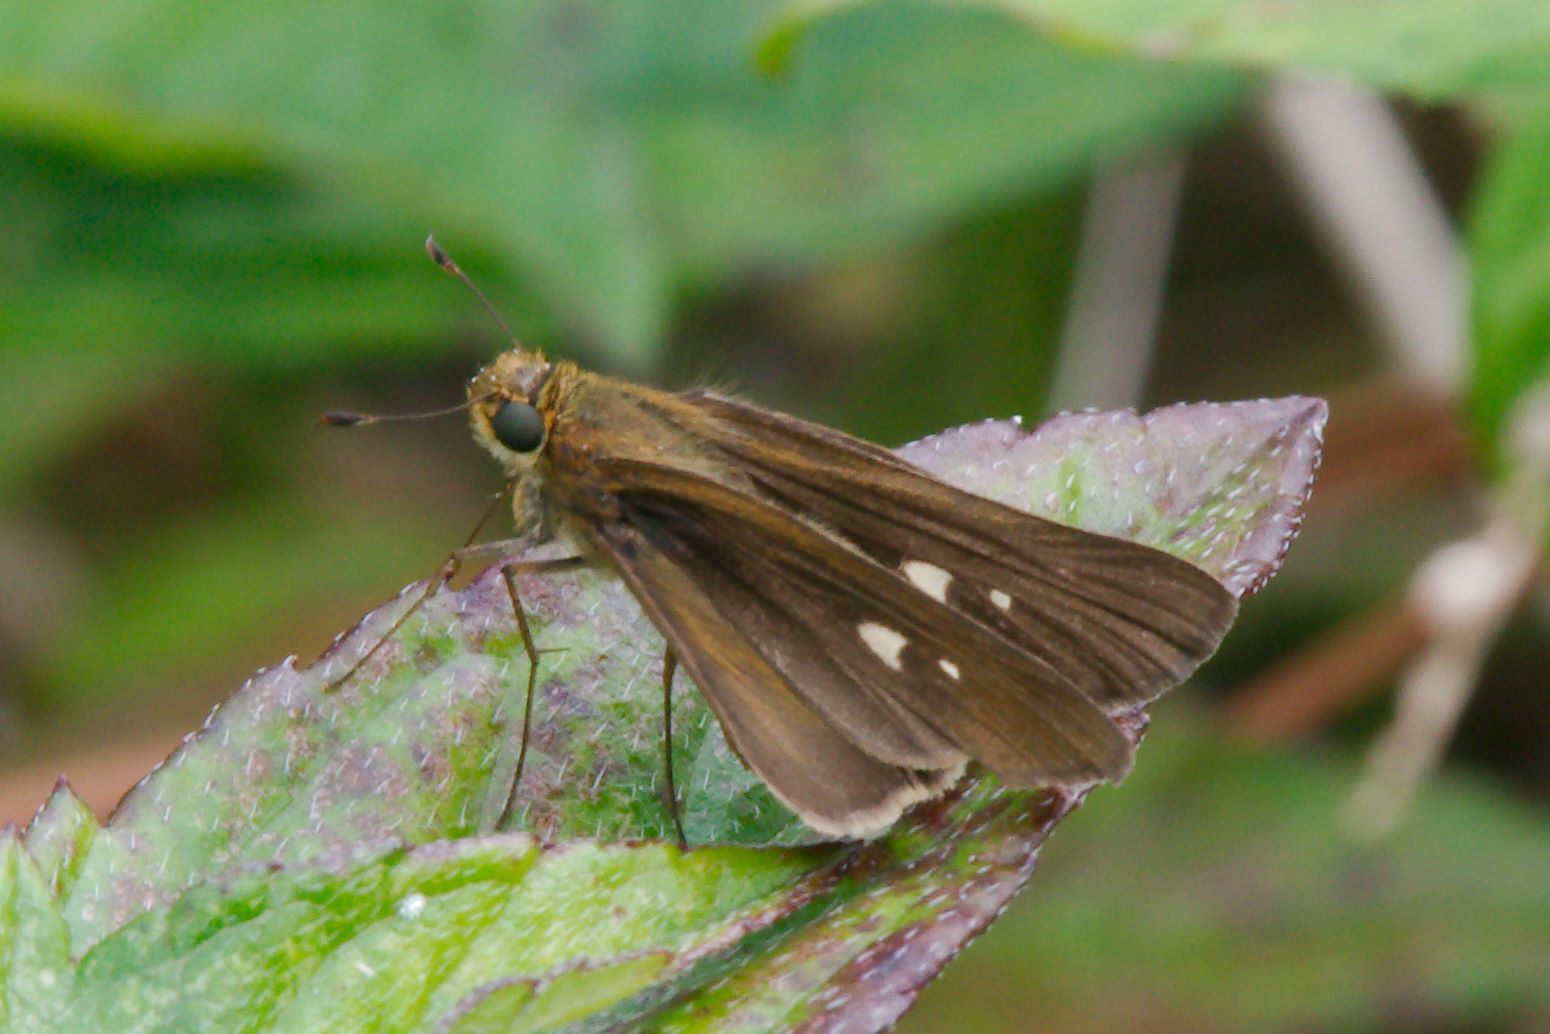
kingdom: Animalia
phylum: Arthropoda
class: Insecta
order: Lepidoptera
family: Hesperiidae
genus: Panoquina
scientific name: Panoquina ocola
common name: Ocola skipper
